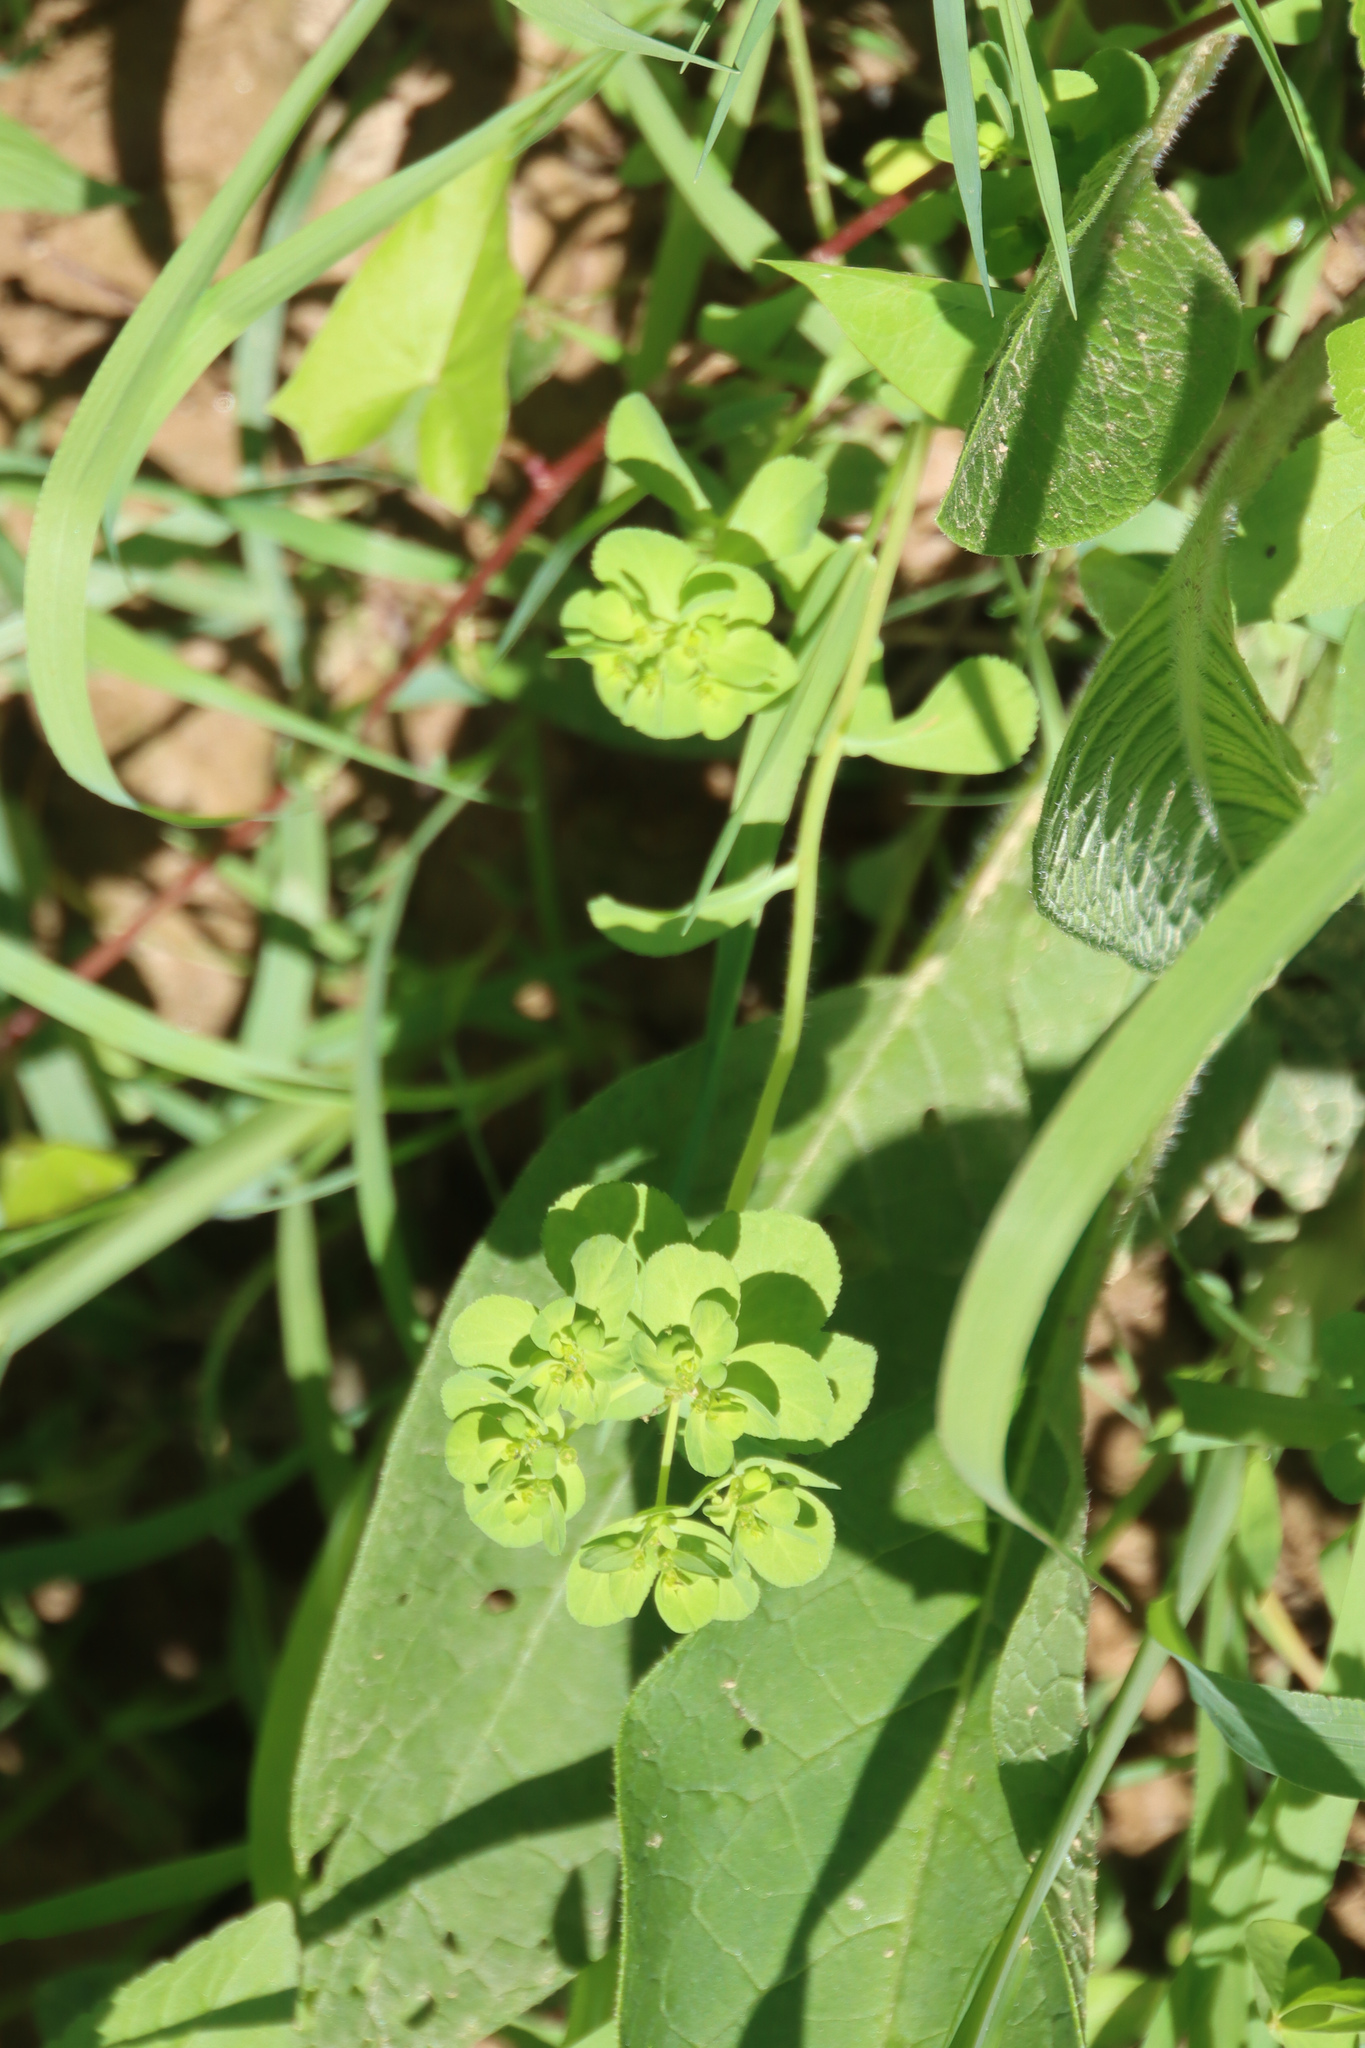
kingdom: Plantae
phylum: Tracheophyta
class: Magnoliopsida
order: Malpighiales
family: Euphorbiaceae
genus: Euphorbia
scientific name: Euphorbia helioscopia
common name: Sun spurge
